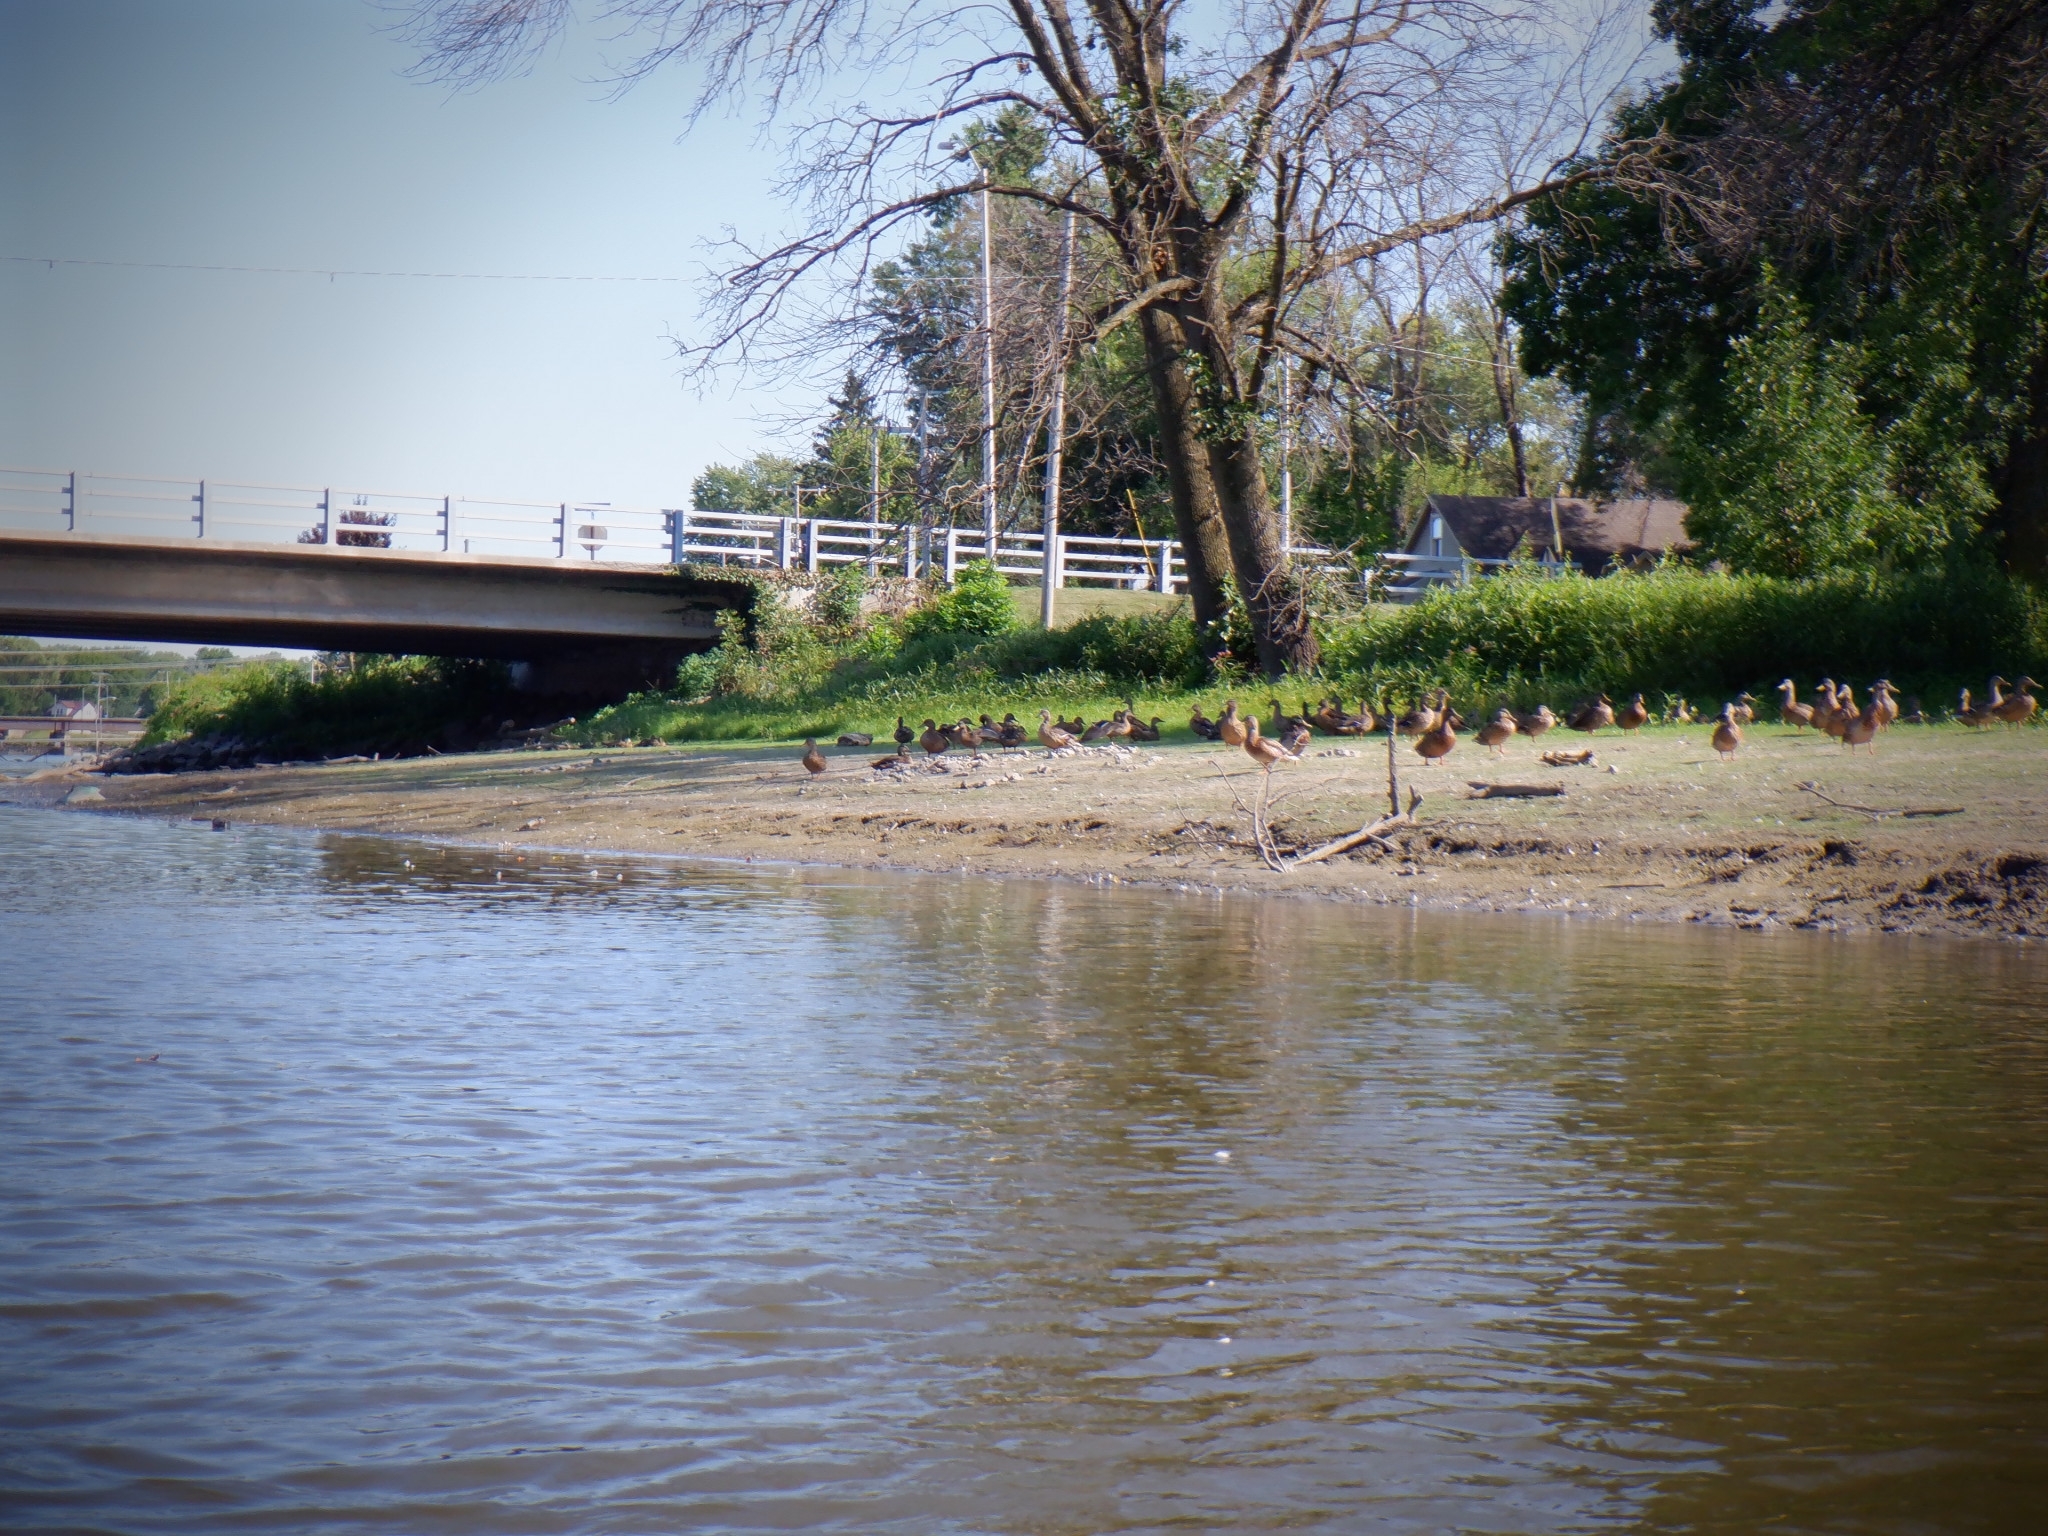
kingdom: Animalia
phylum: Chordata
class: Aves
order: Anseriformes
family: Anatidae
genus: Anas
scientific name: Anas platyrhynchos
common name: Mallard
